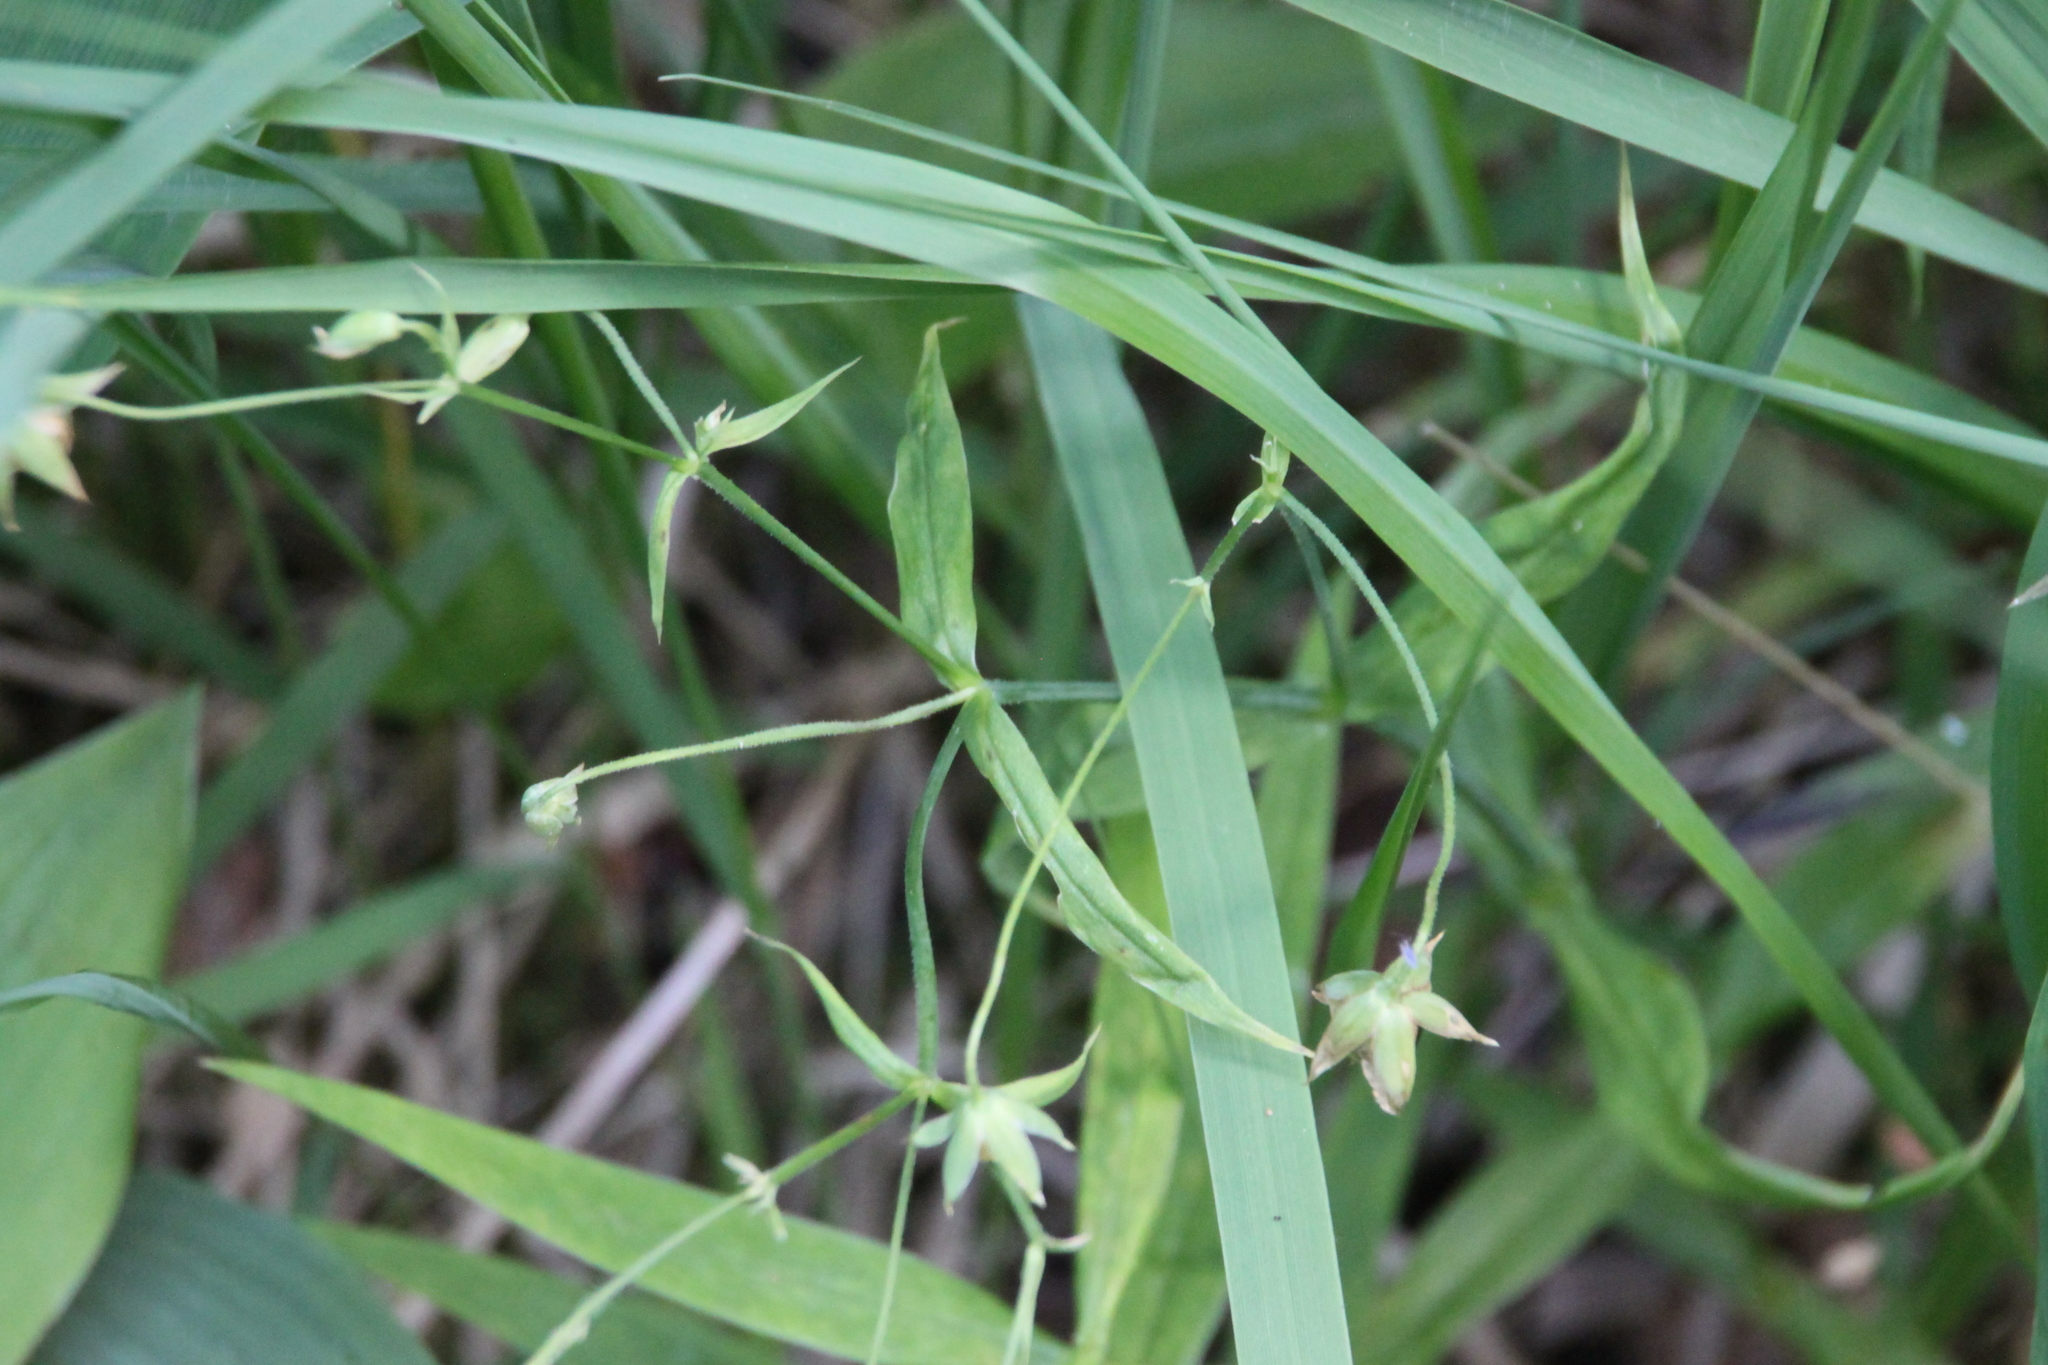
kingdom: Plantae
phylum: Tracheophyta
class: Magnoliopsida
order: Caryophyllales
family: Caryophyllaceae
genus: Rabelera
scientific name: Rabelera holostea
